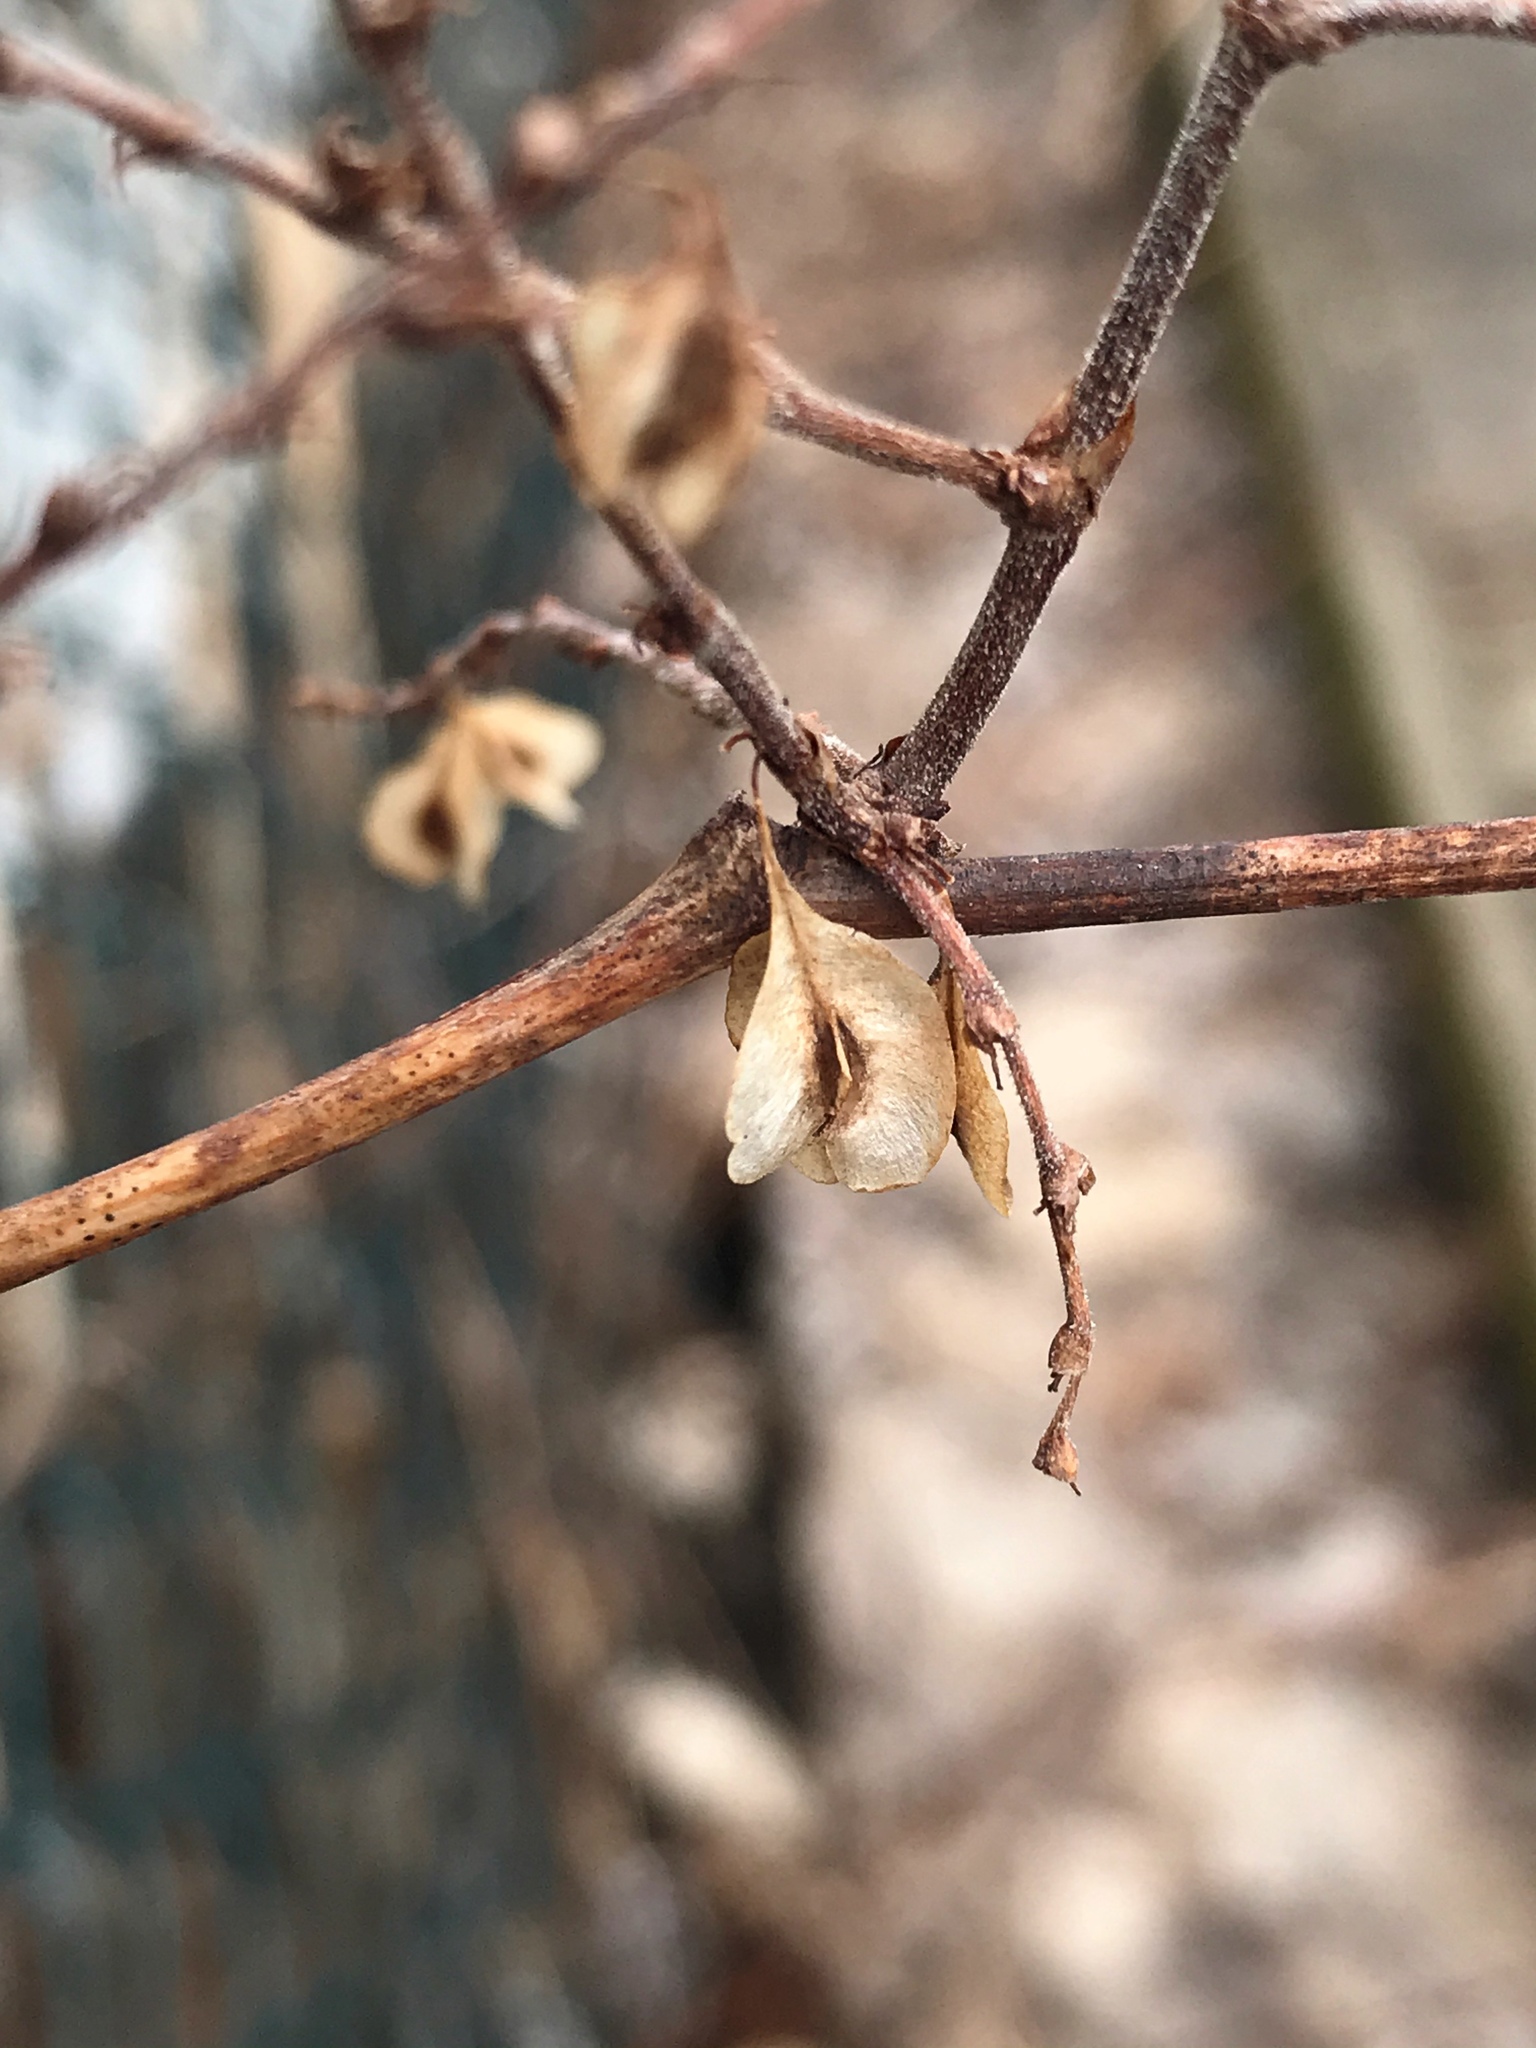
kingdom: Plantae
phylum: Tracheophyta
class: Magnoliopsida
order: Caryophyllales
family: Polygonaceae
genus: Reynoutria
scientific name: Reynoutria japonica
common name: Japanese knotweed
